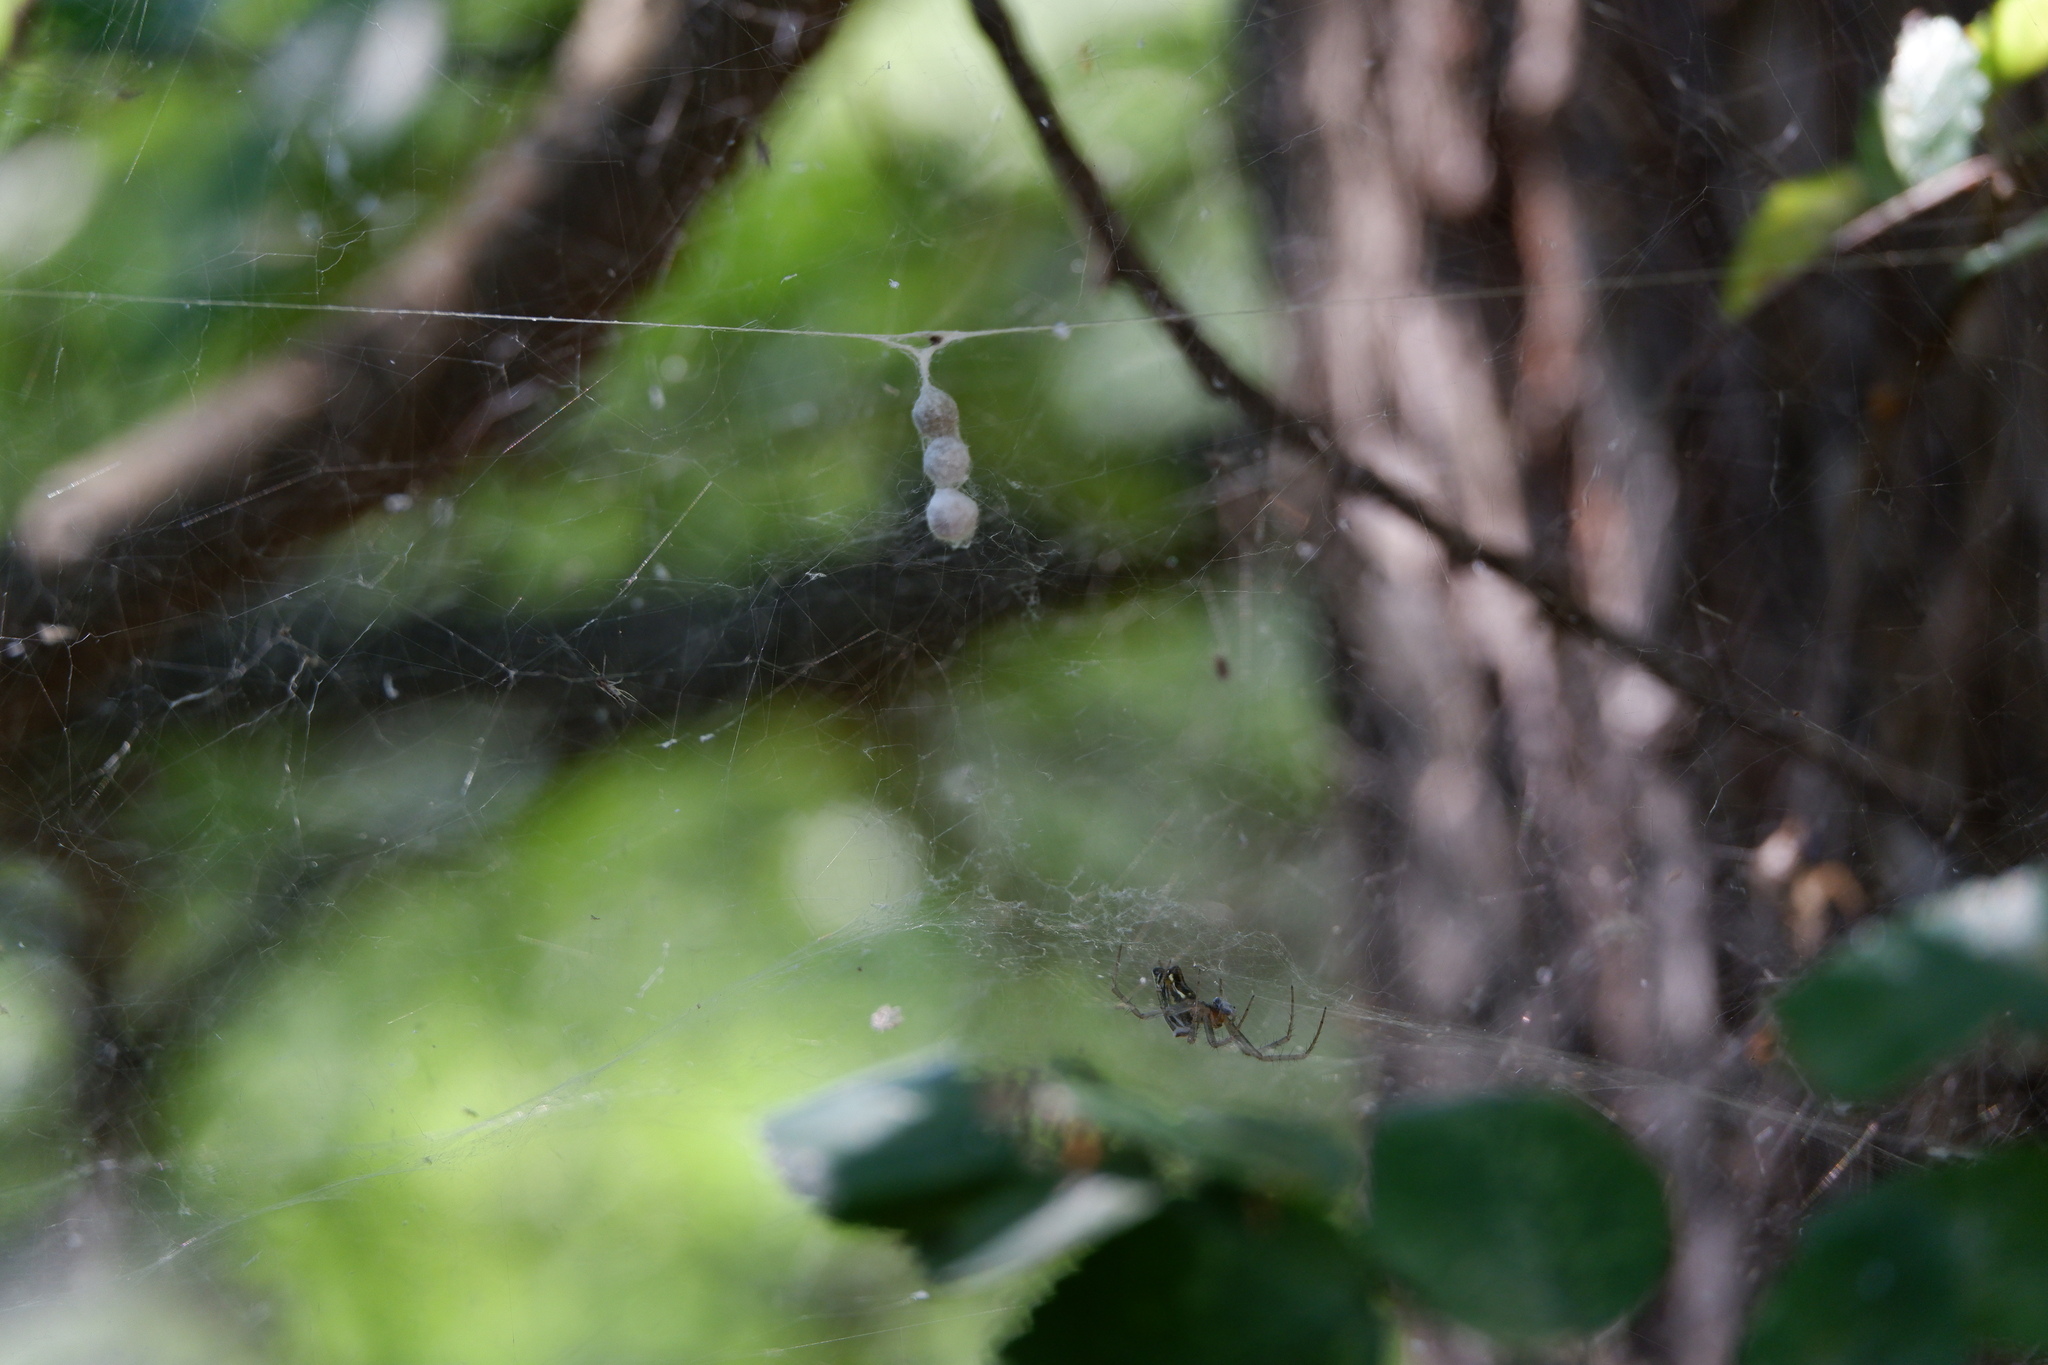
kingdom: Animalia
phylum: Arthropoda
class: Arachnida
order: Araneae
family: Araneidae
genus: Mecynogea
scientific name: Mecynogea lemniscata
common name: Orb weavers
